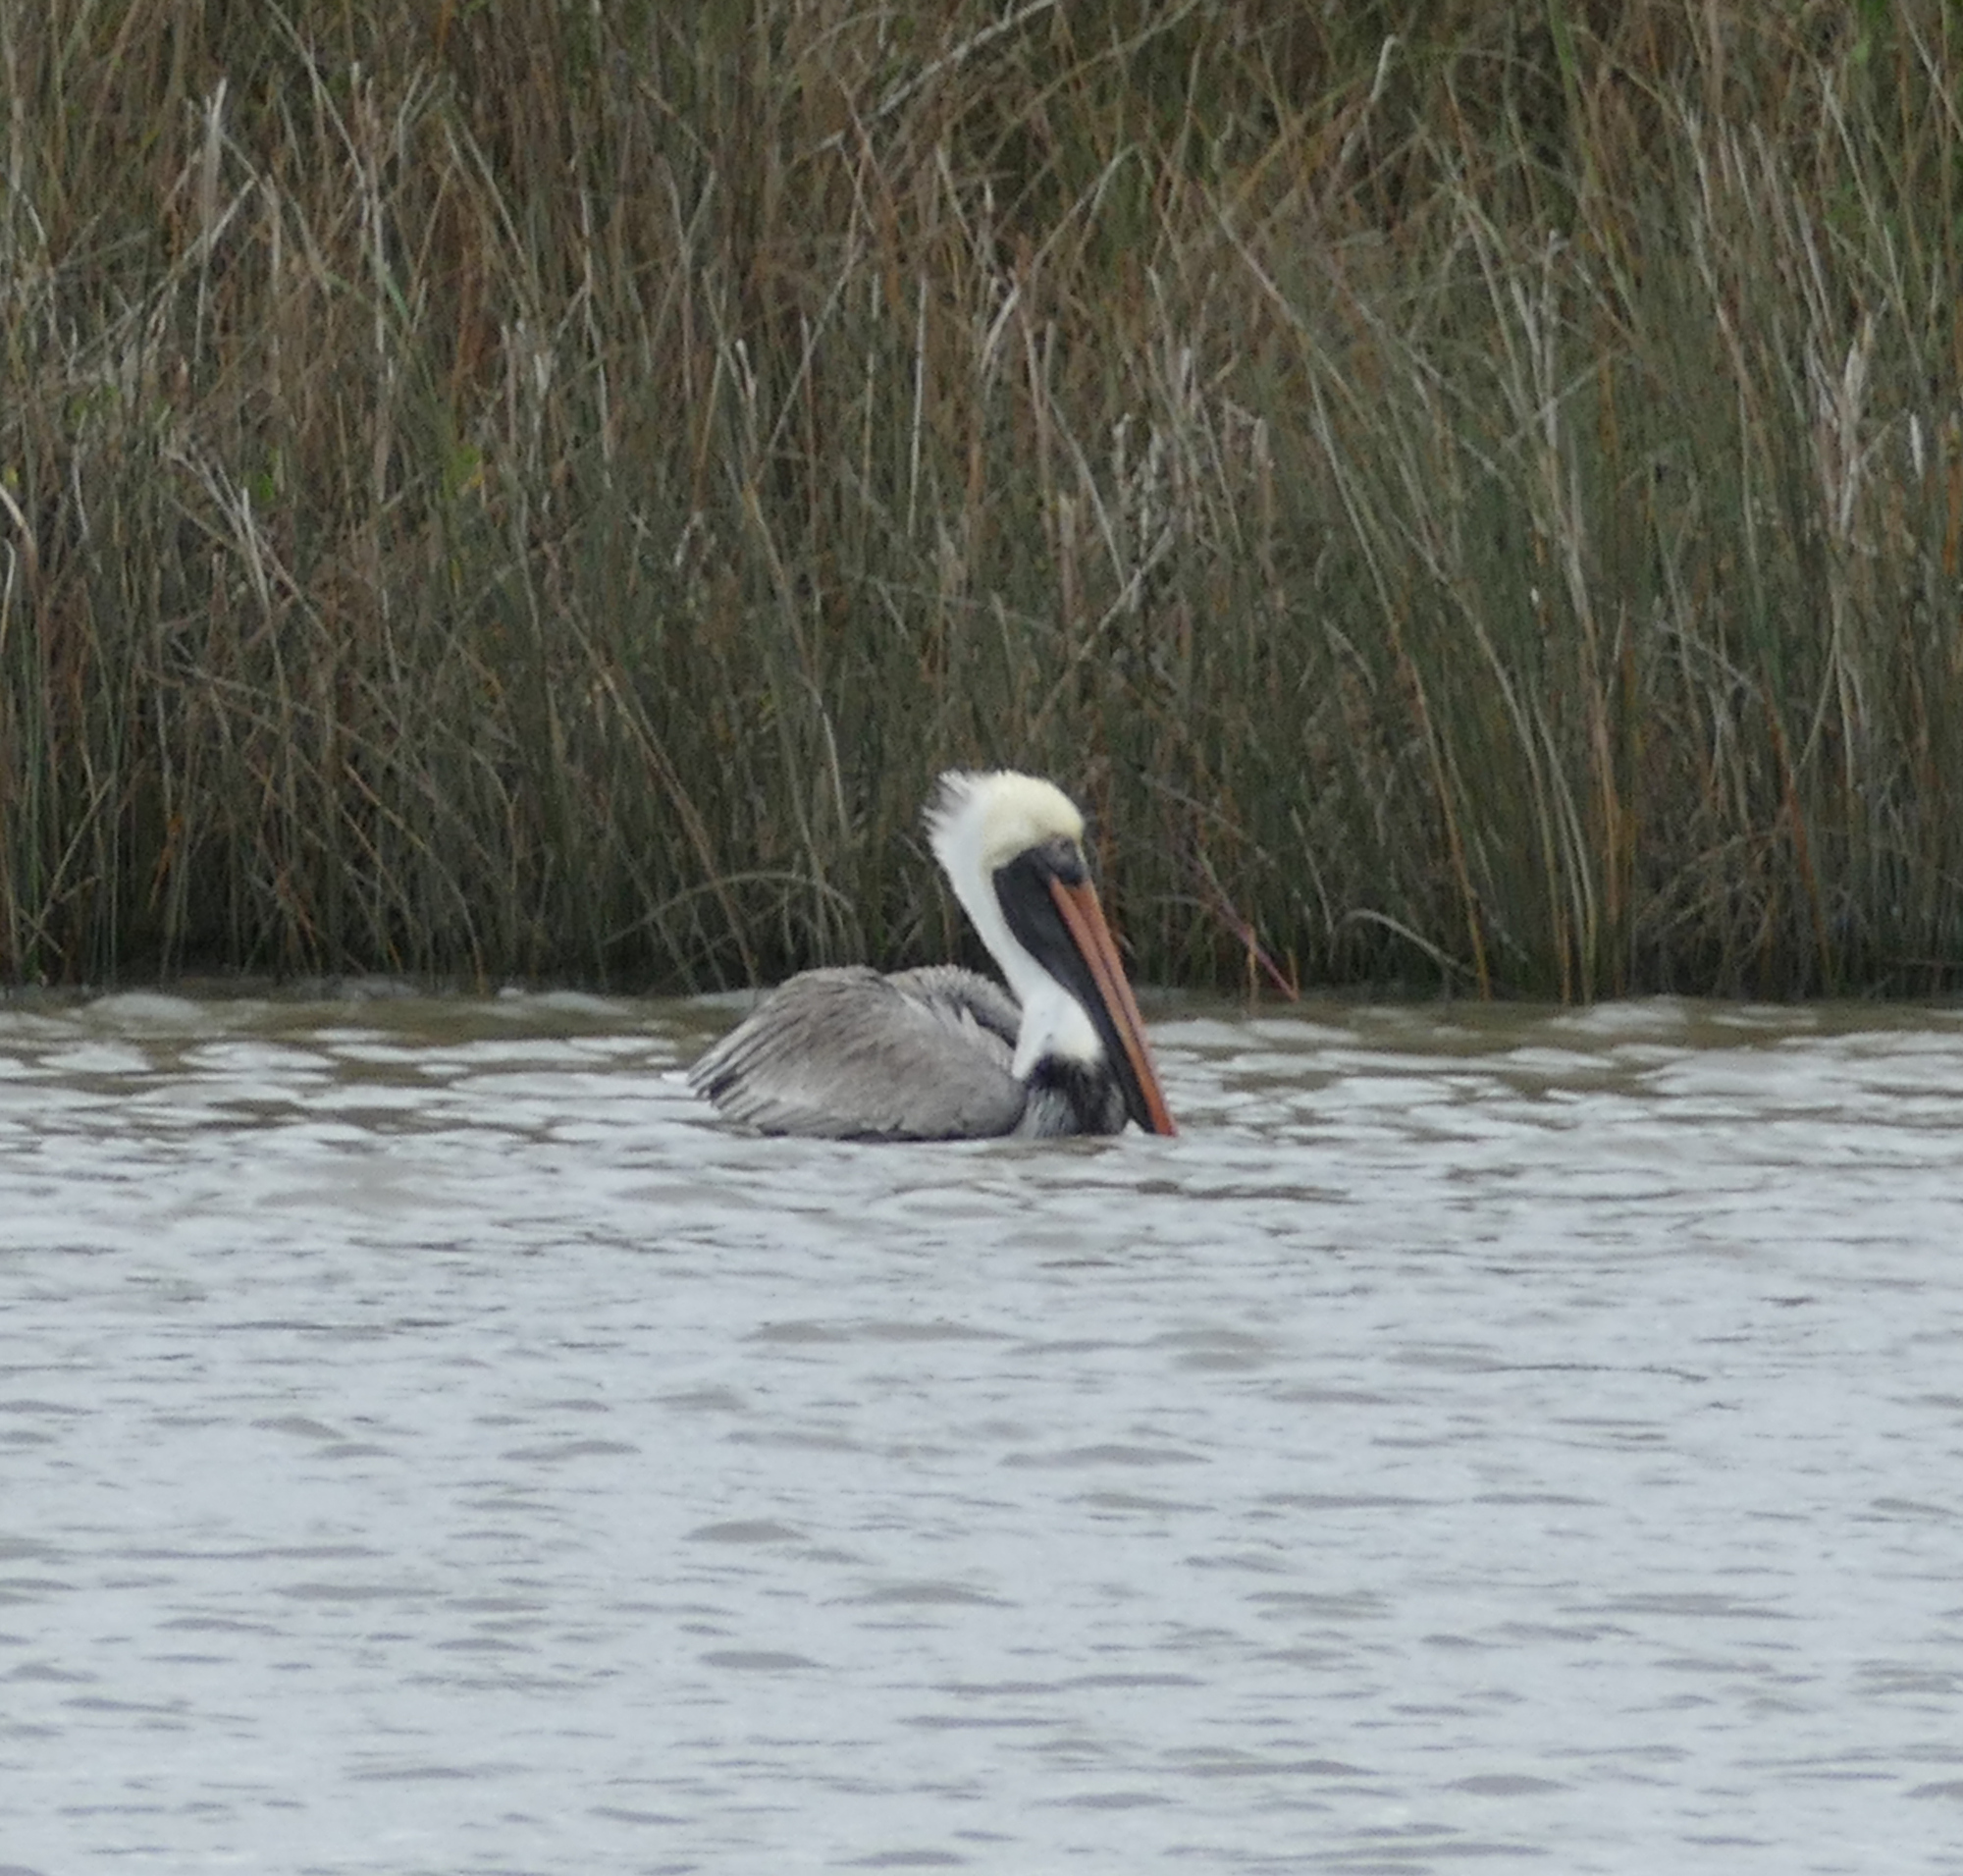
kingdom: Animalia
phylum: Chordata
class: Aves
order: Pelecaniformes
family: Pelecanidae
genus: Pelecanus
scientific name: Pelecanus occidentalis
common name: Brown pelican
